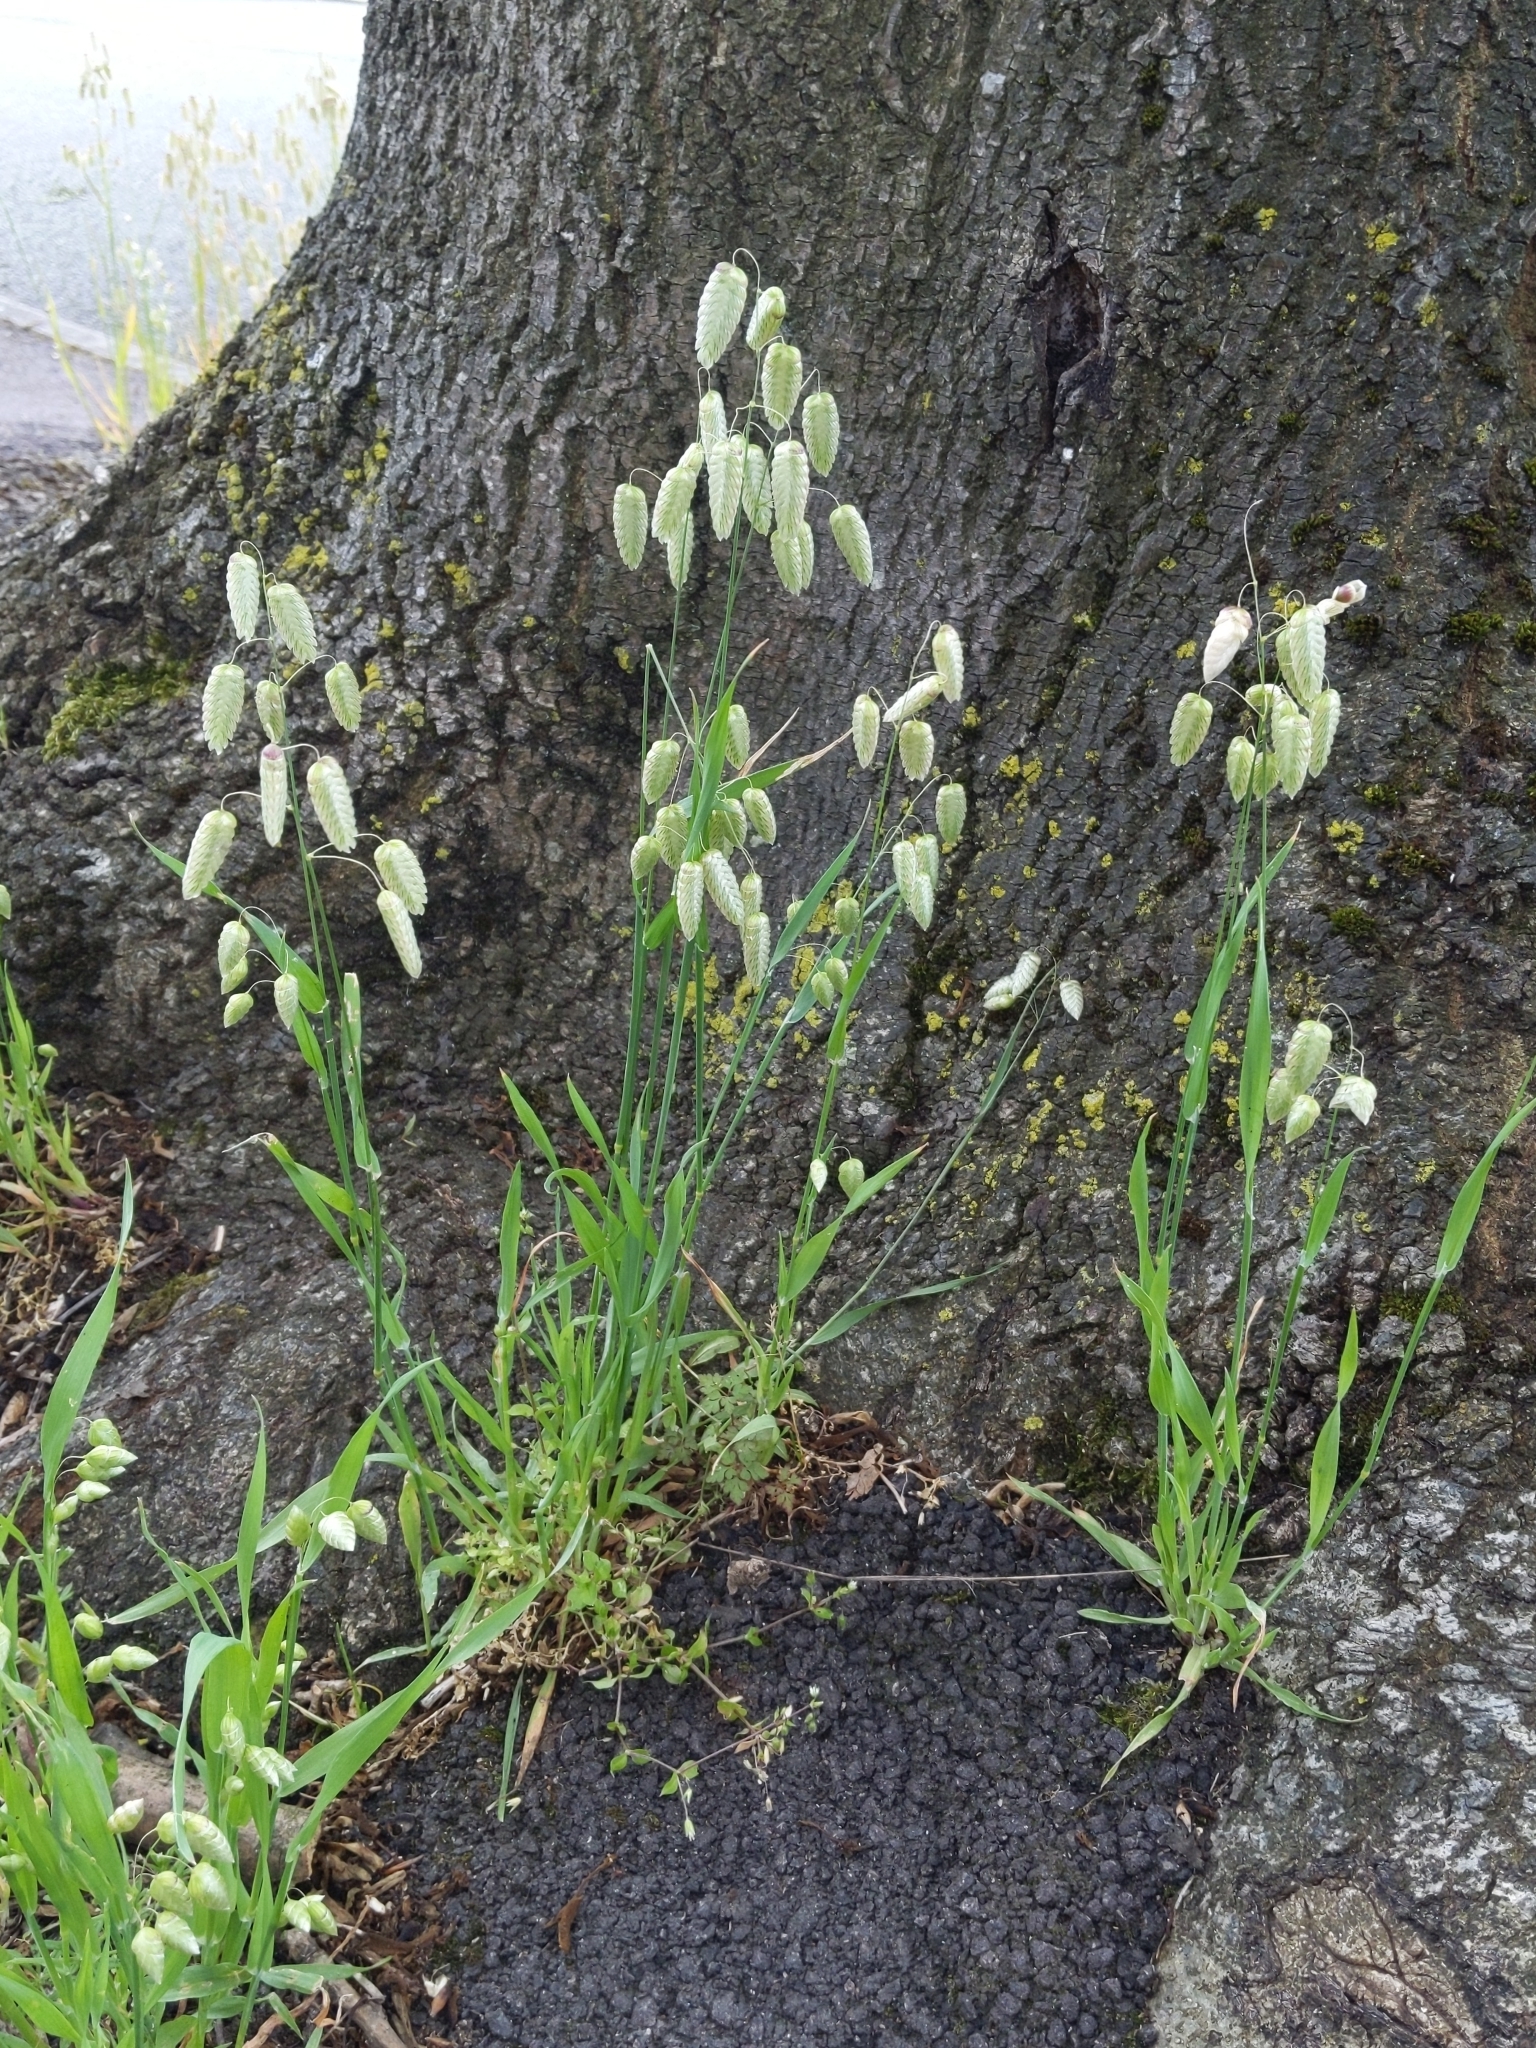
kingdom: Plantae
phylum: Tracheophyta
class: Liliopsida
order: Poales
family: Poaceae
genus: Briza
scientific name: Briza maxima
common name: Big quakinggrass
